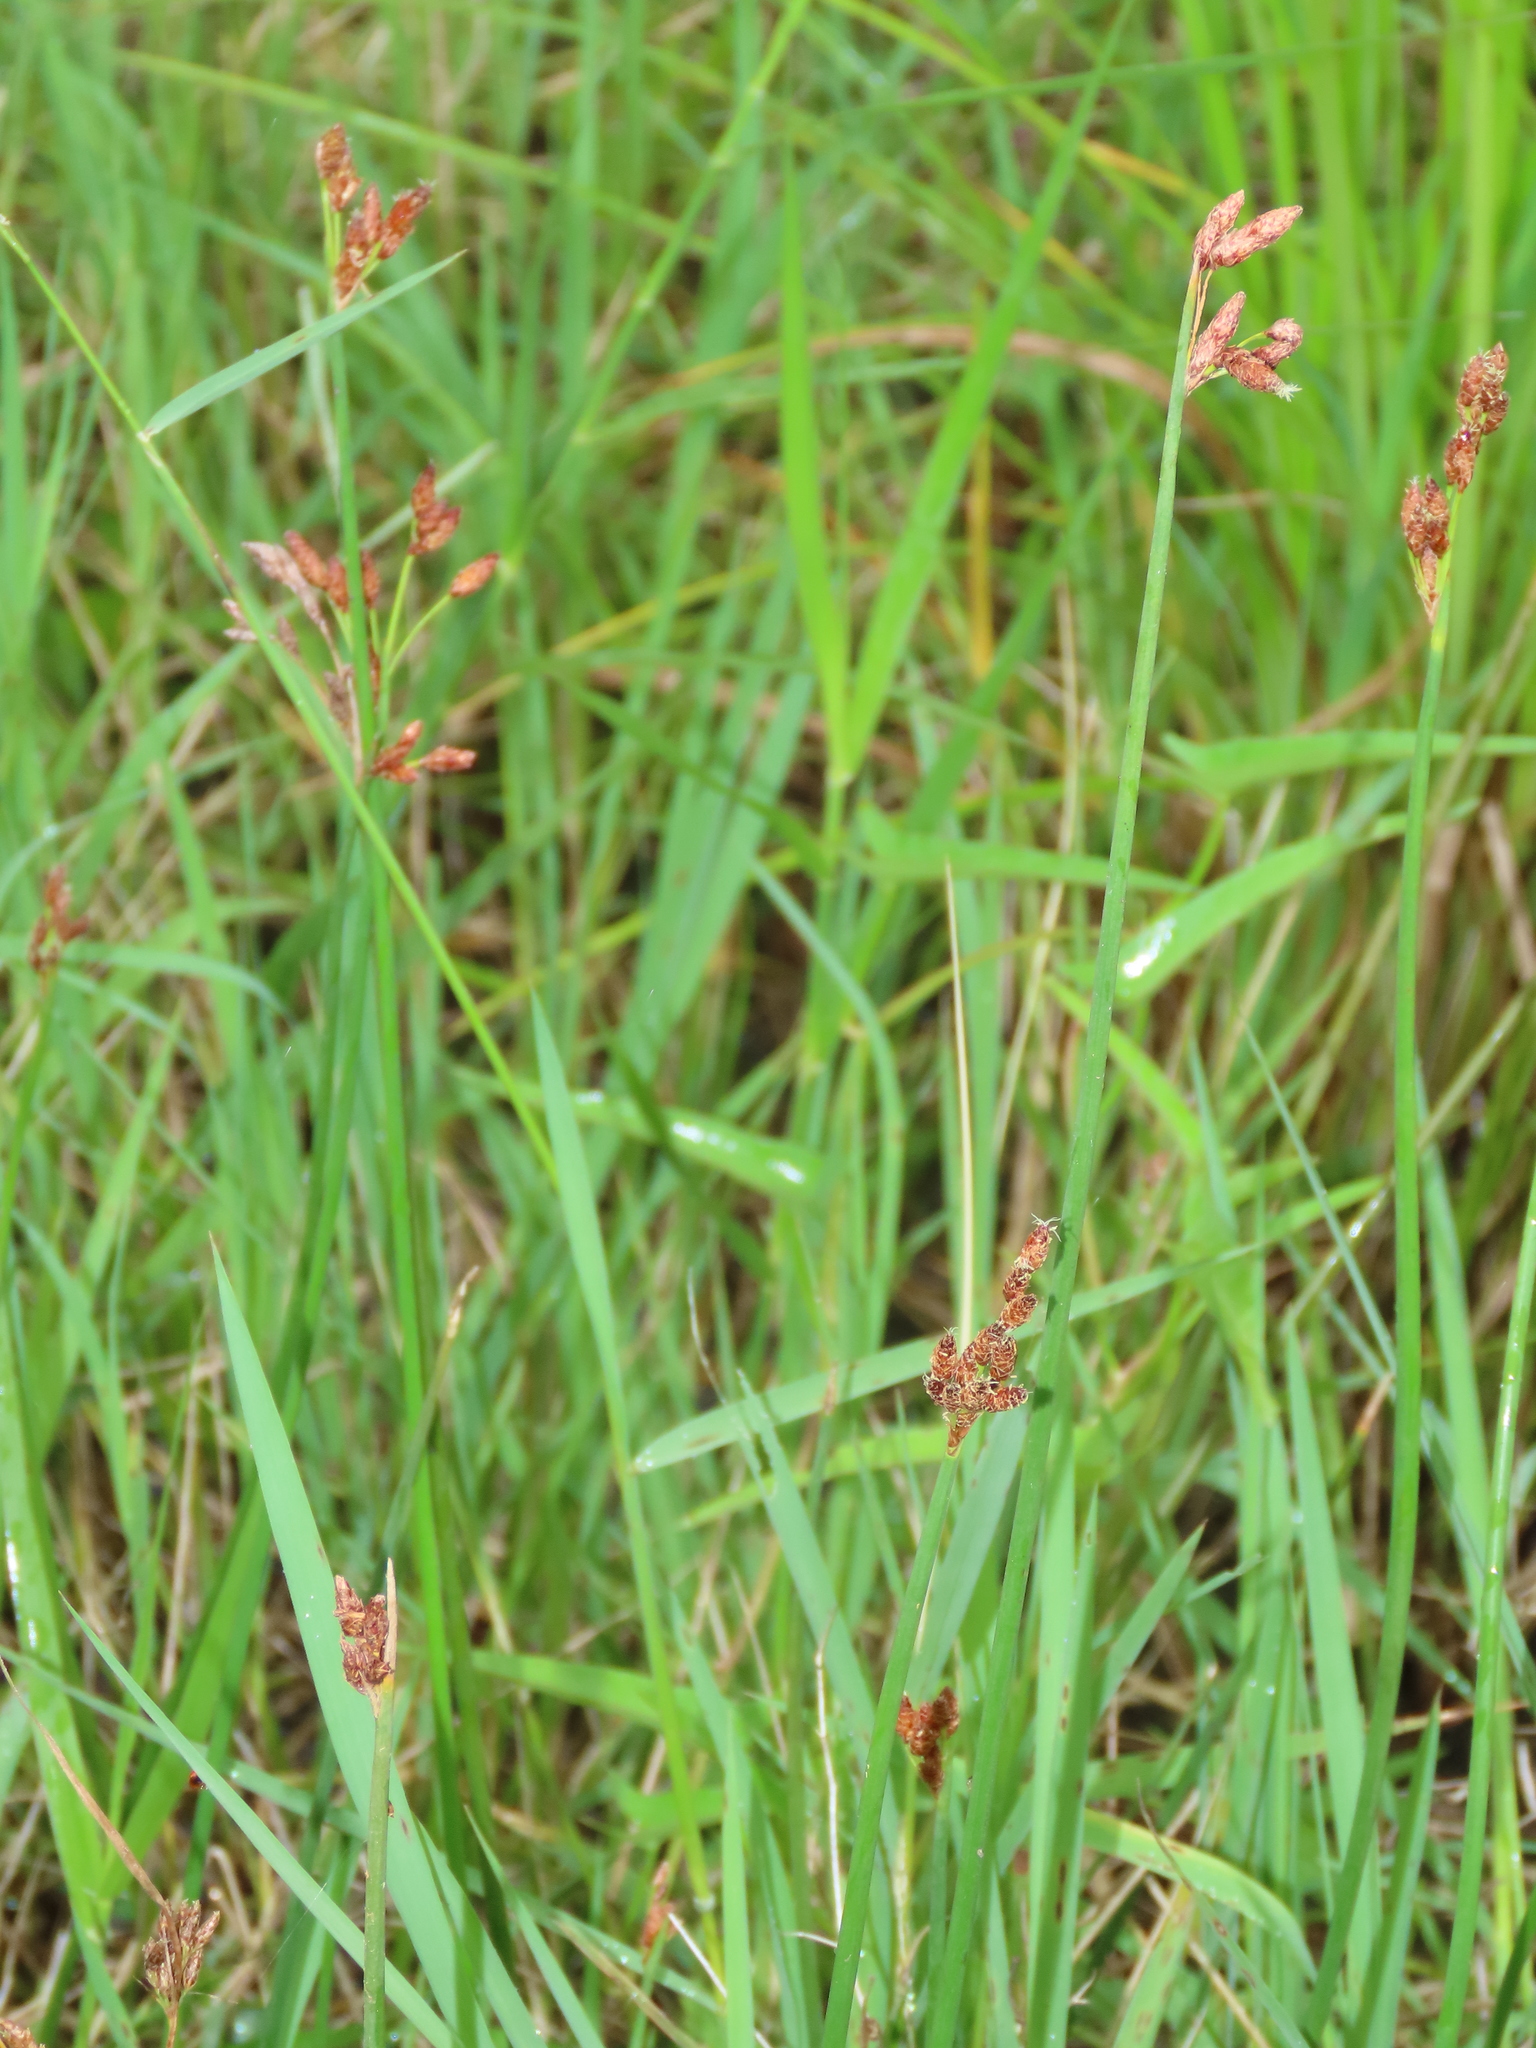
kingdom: Plantae
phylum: Tracheophyta
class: Liliopsida
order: Poales
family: Cyperaceae
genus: Schoenoplectus
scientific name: Schoenoplectus tabernaemontani
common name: Grey club-rush
